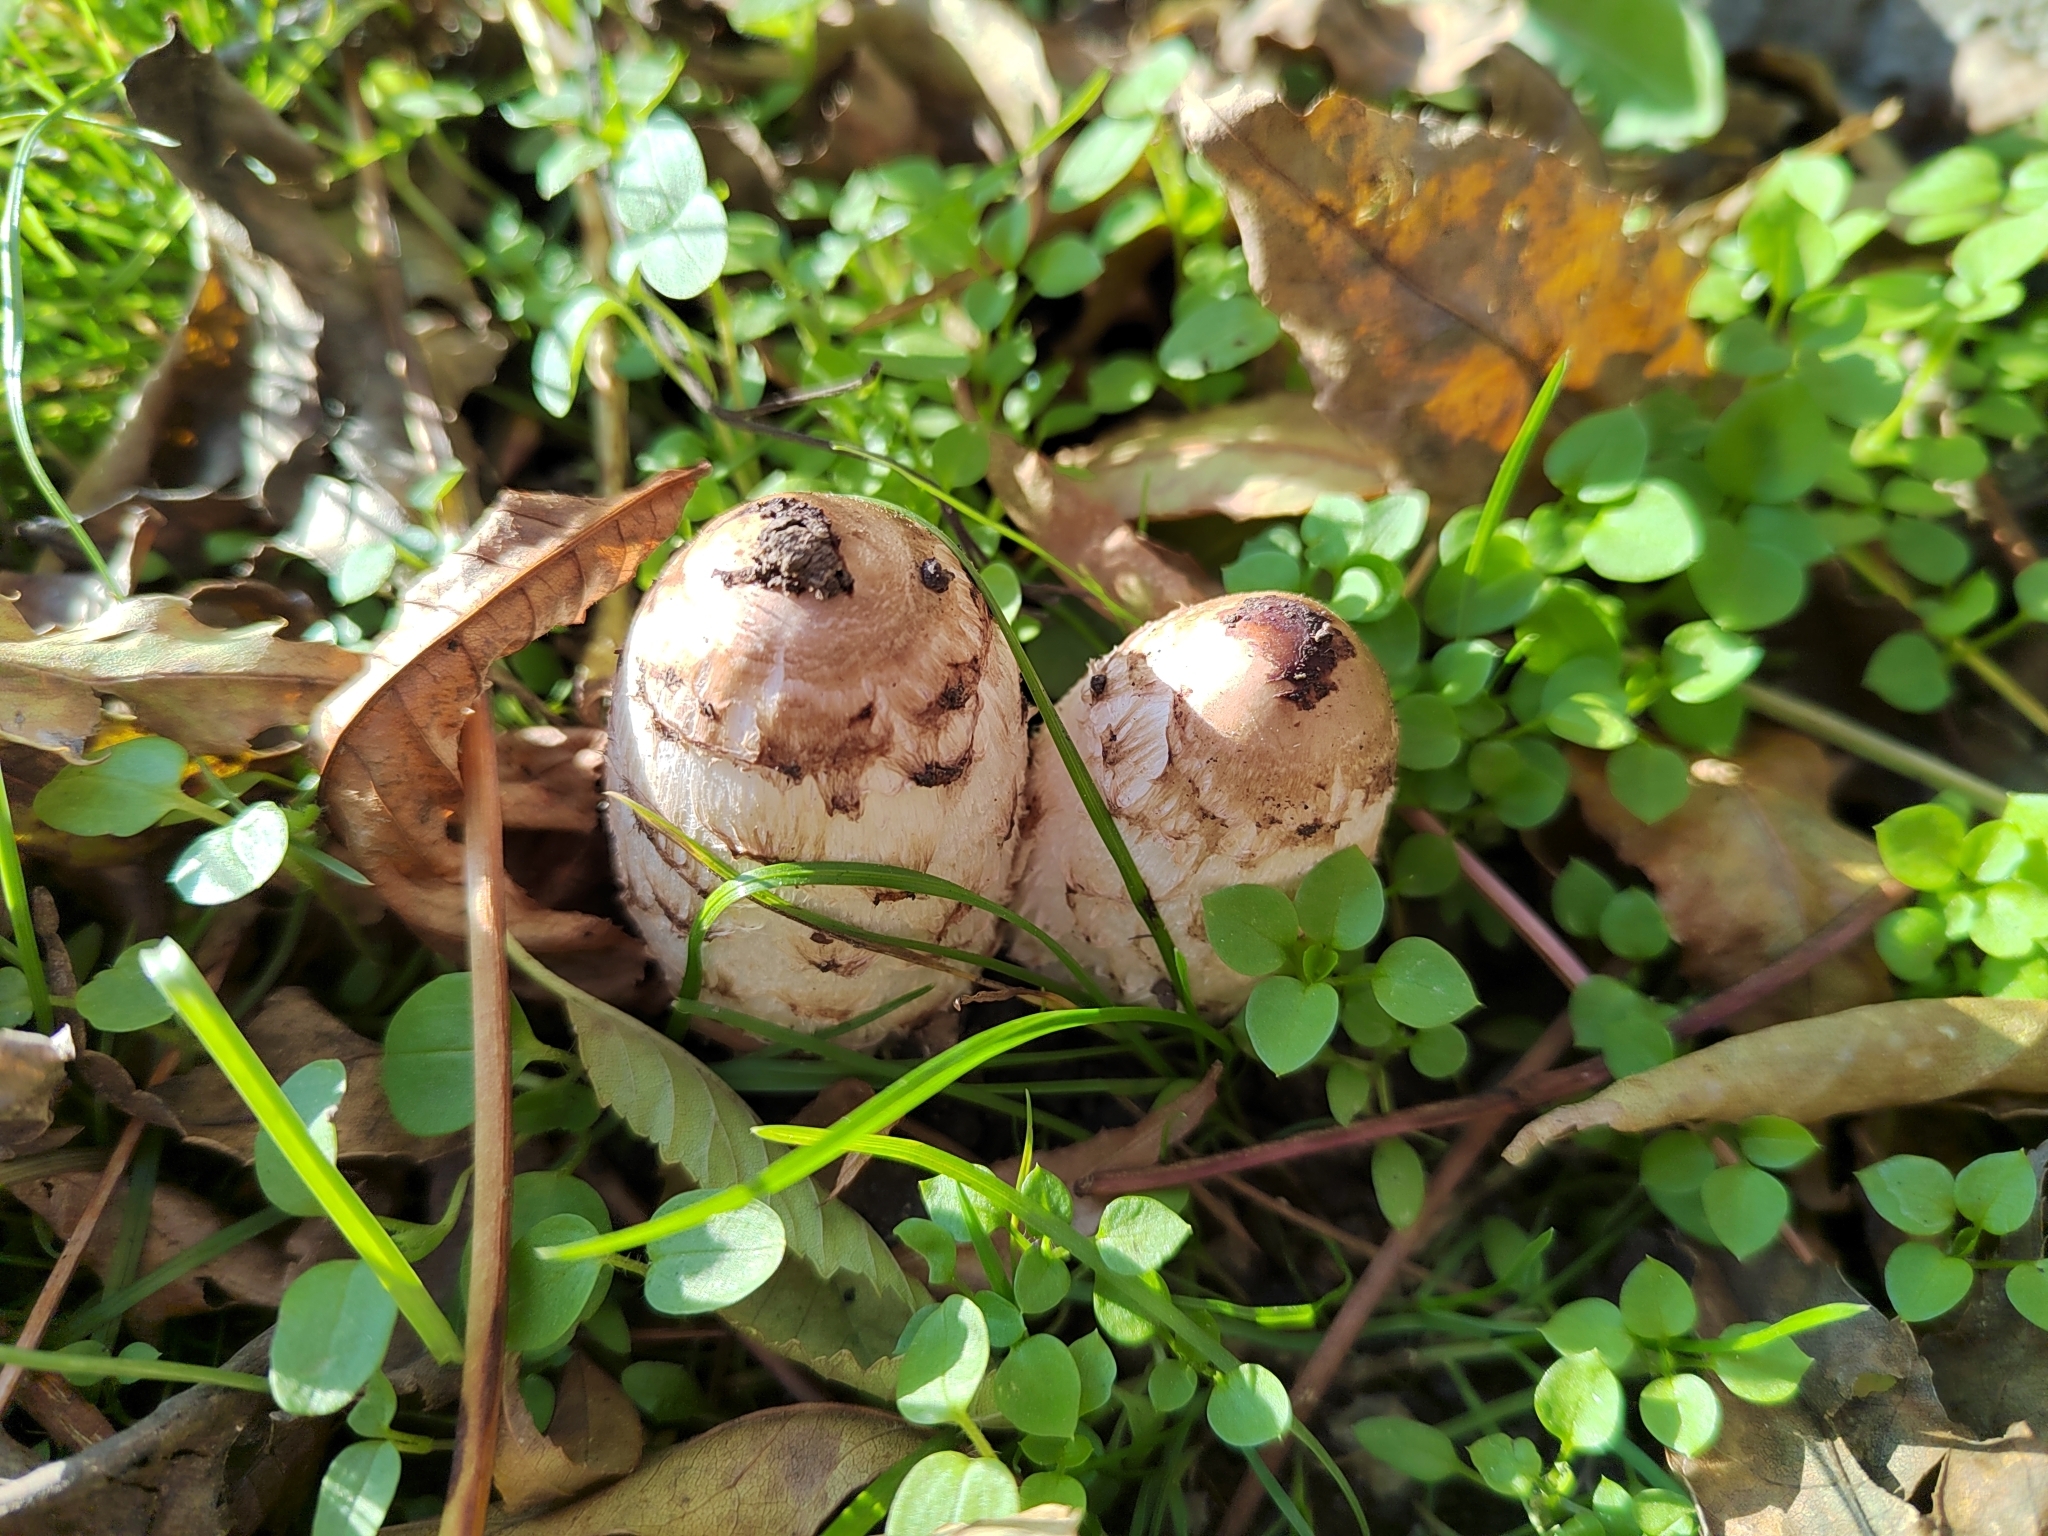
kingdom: Fungi
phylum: Basidiomycota
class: Agaricomycetes
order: Agaricales
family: Agaricaceae
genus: Coprinus
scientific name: Coprinus comatus
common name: Lawyer's wig
